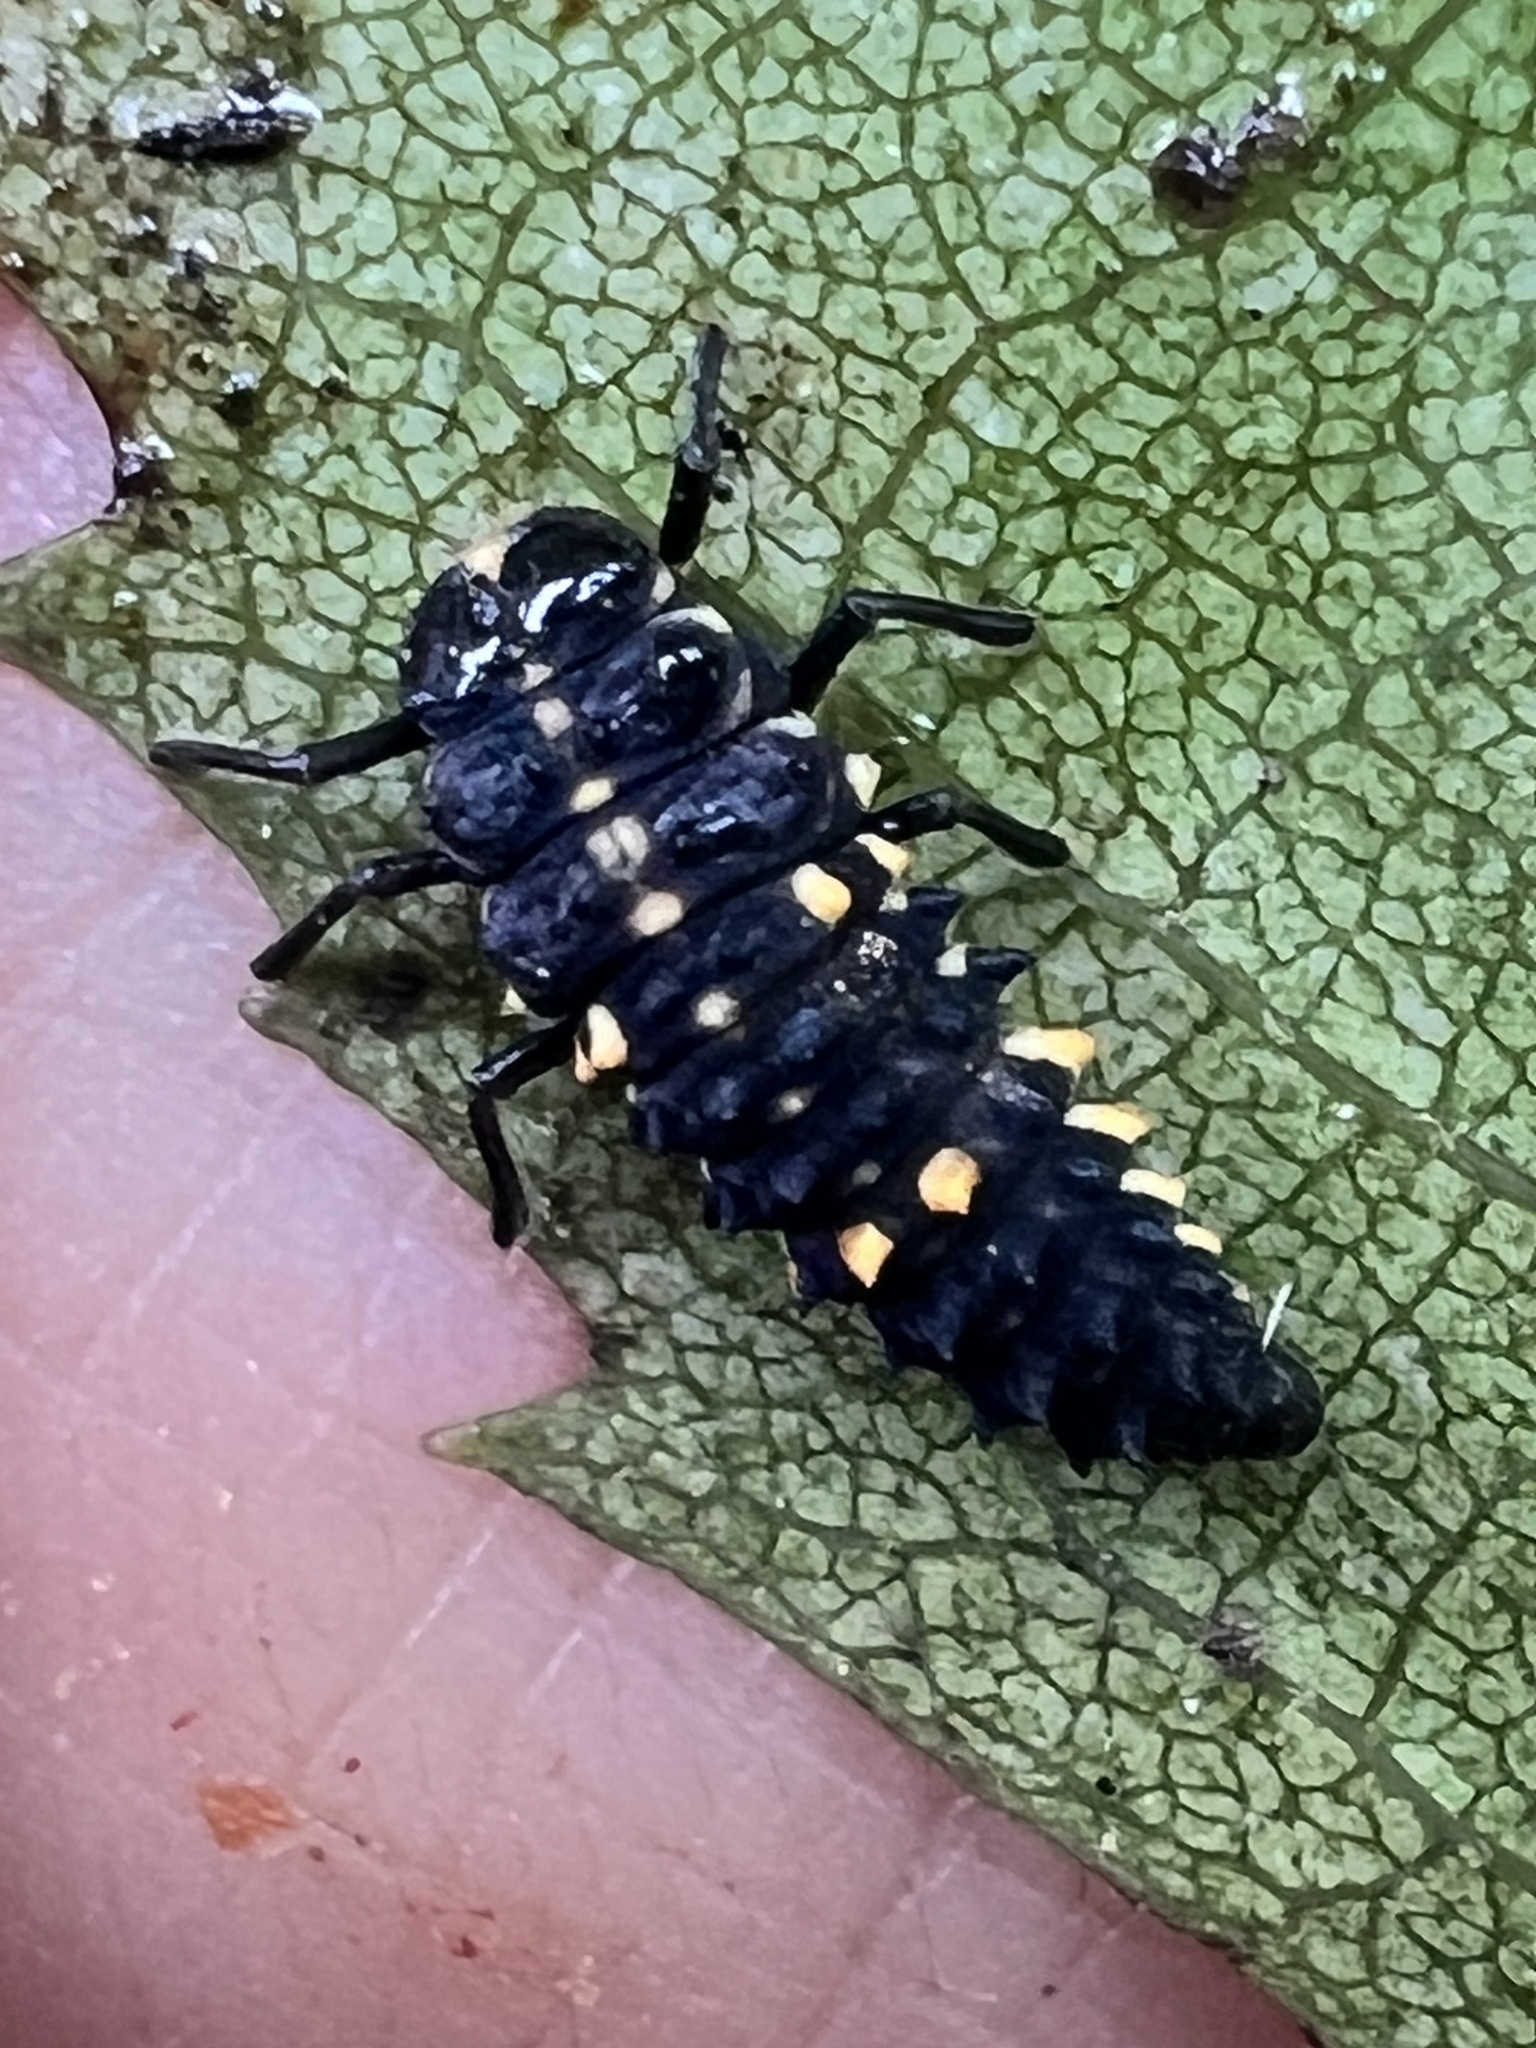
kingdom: Animalia
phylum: Arthropoda
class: Insecta
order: Coleoptera
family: Coccinellidae
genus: Cleobora
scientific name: Cleobora
